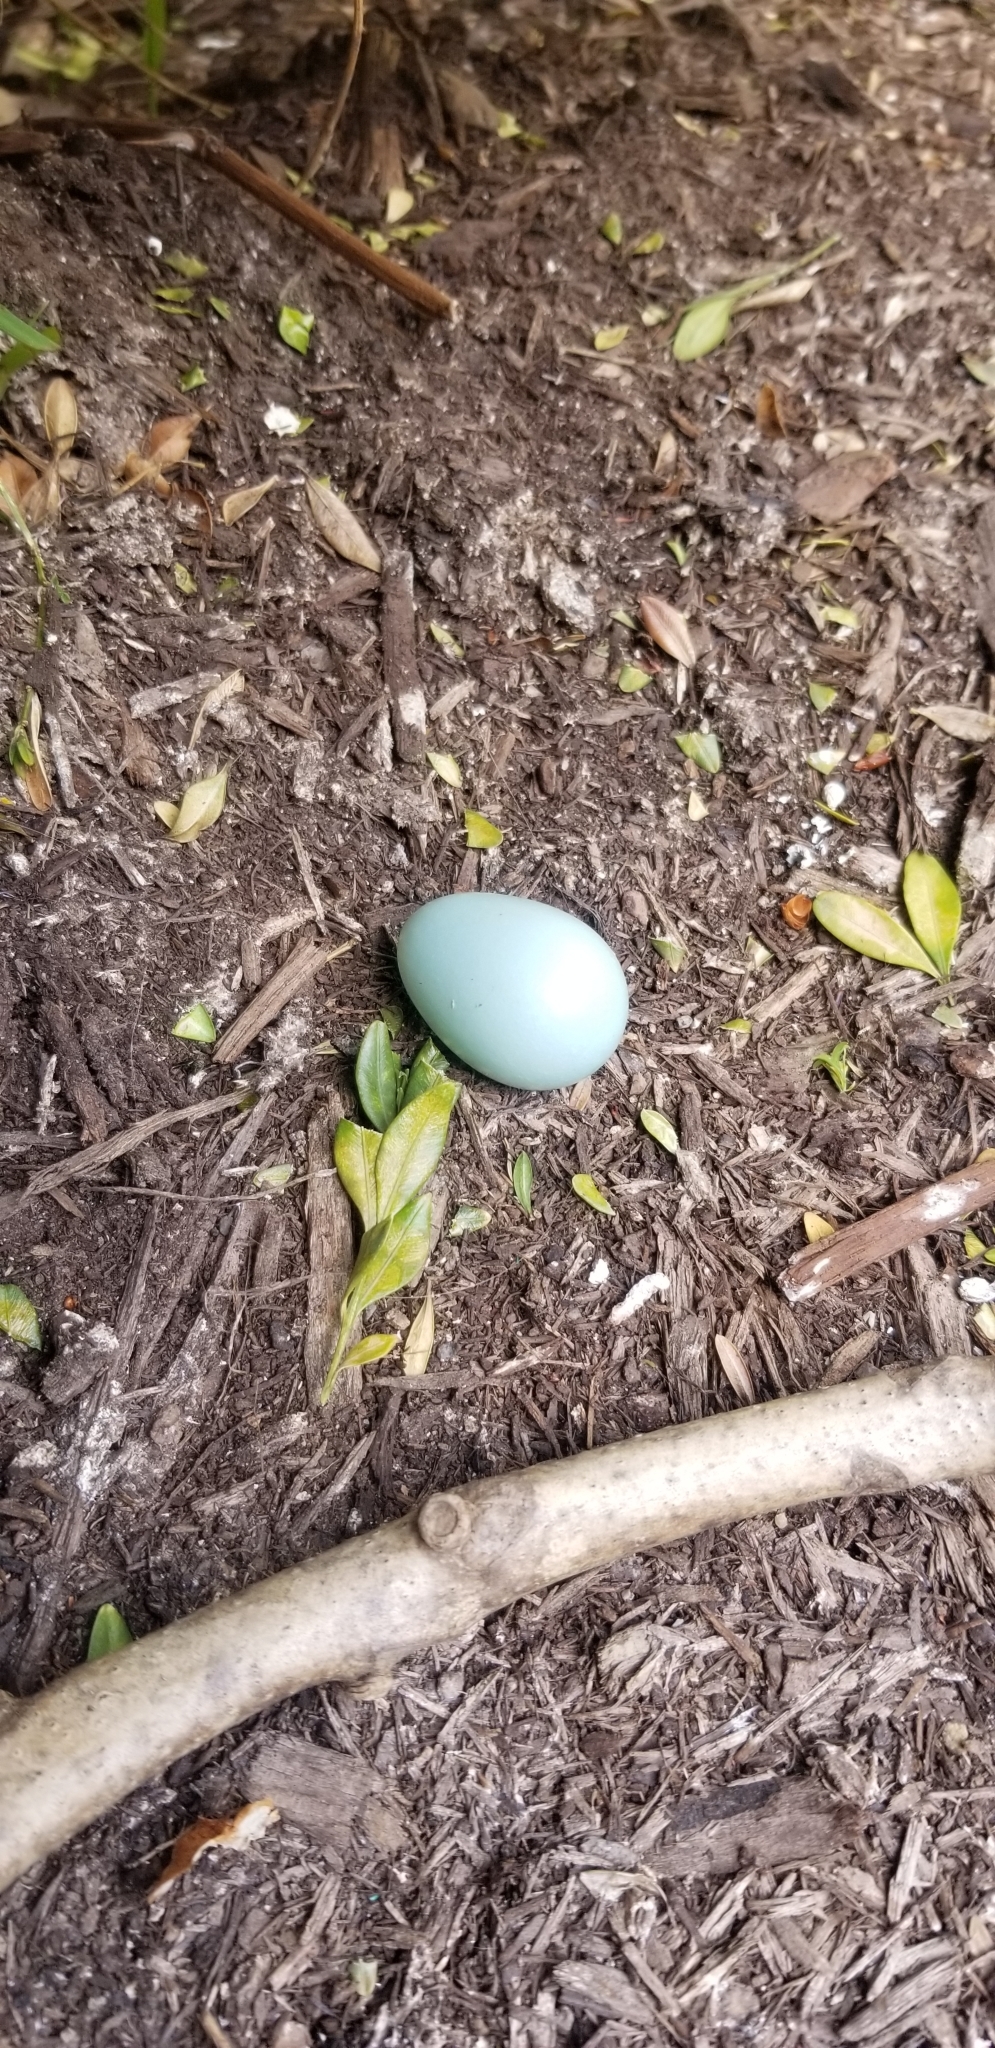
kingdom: Animalia
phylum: Chordata
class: Aves
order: Passeriformes
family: Turdidae
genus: Turdus
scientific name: Turdus migratorius
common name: American robin
